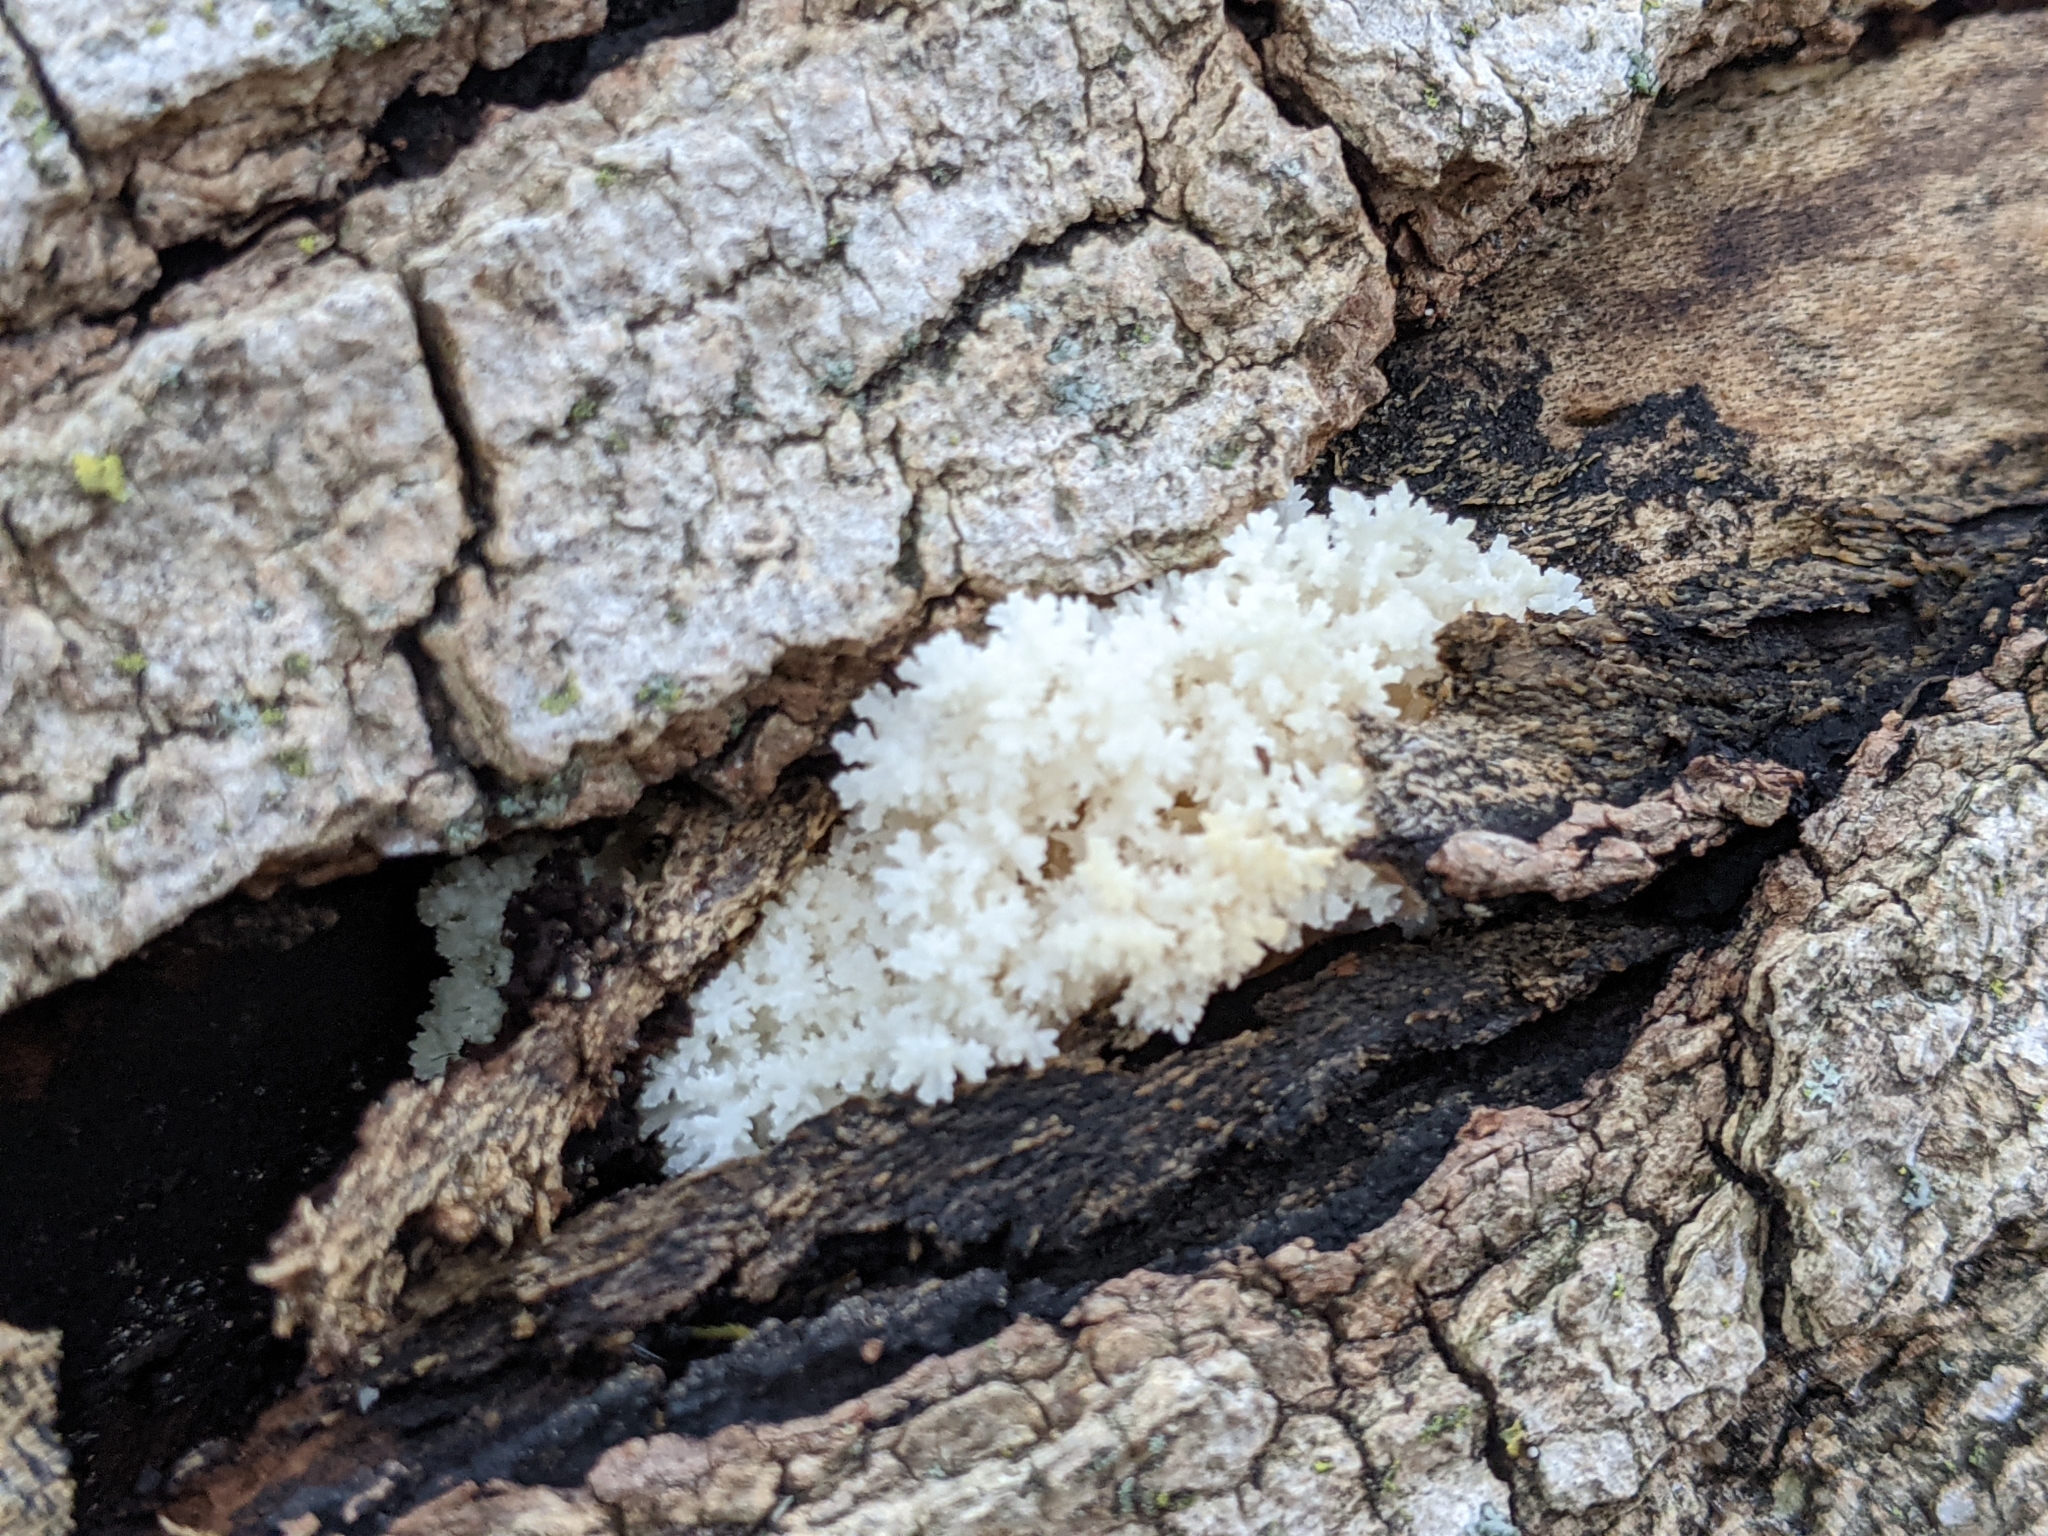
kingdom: Fungi
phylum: Basidiomycota
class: Agaricomycetes
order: Russulales
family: Hericiaceae
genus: Hericium
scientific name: Hericium coralloides
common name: Coral tooth
